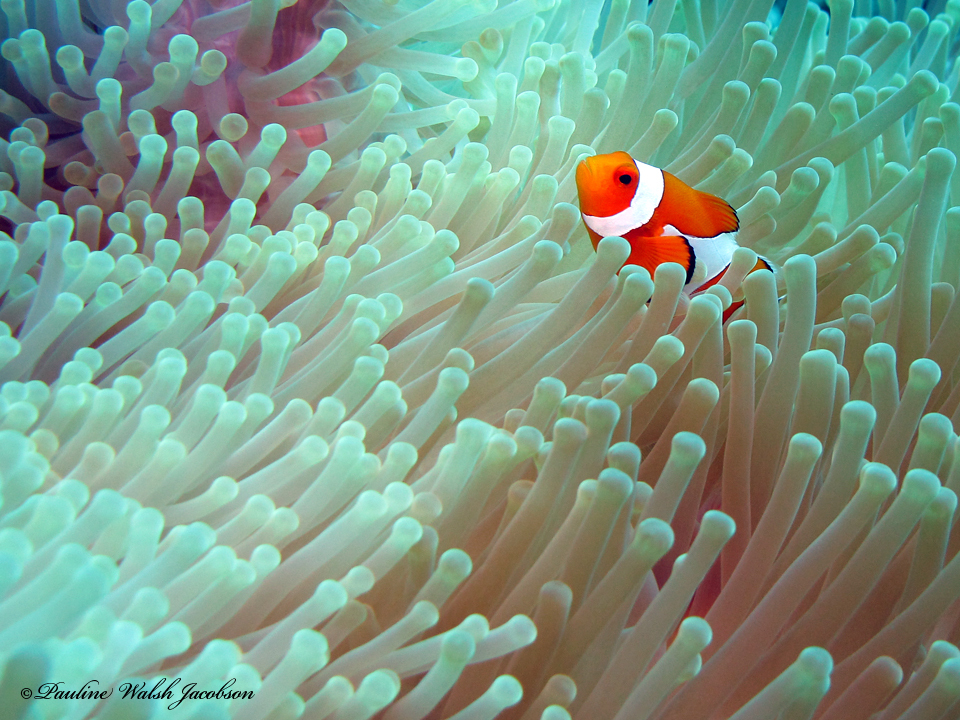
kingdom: Animalia
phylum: Chordata
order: Perciformes
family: Pomacentridae
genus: Amphiprion
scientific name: Amphiprion ocellaris
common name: Clown anemonefish
